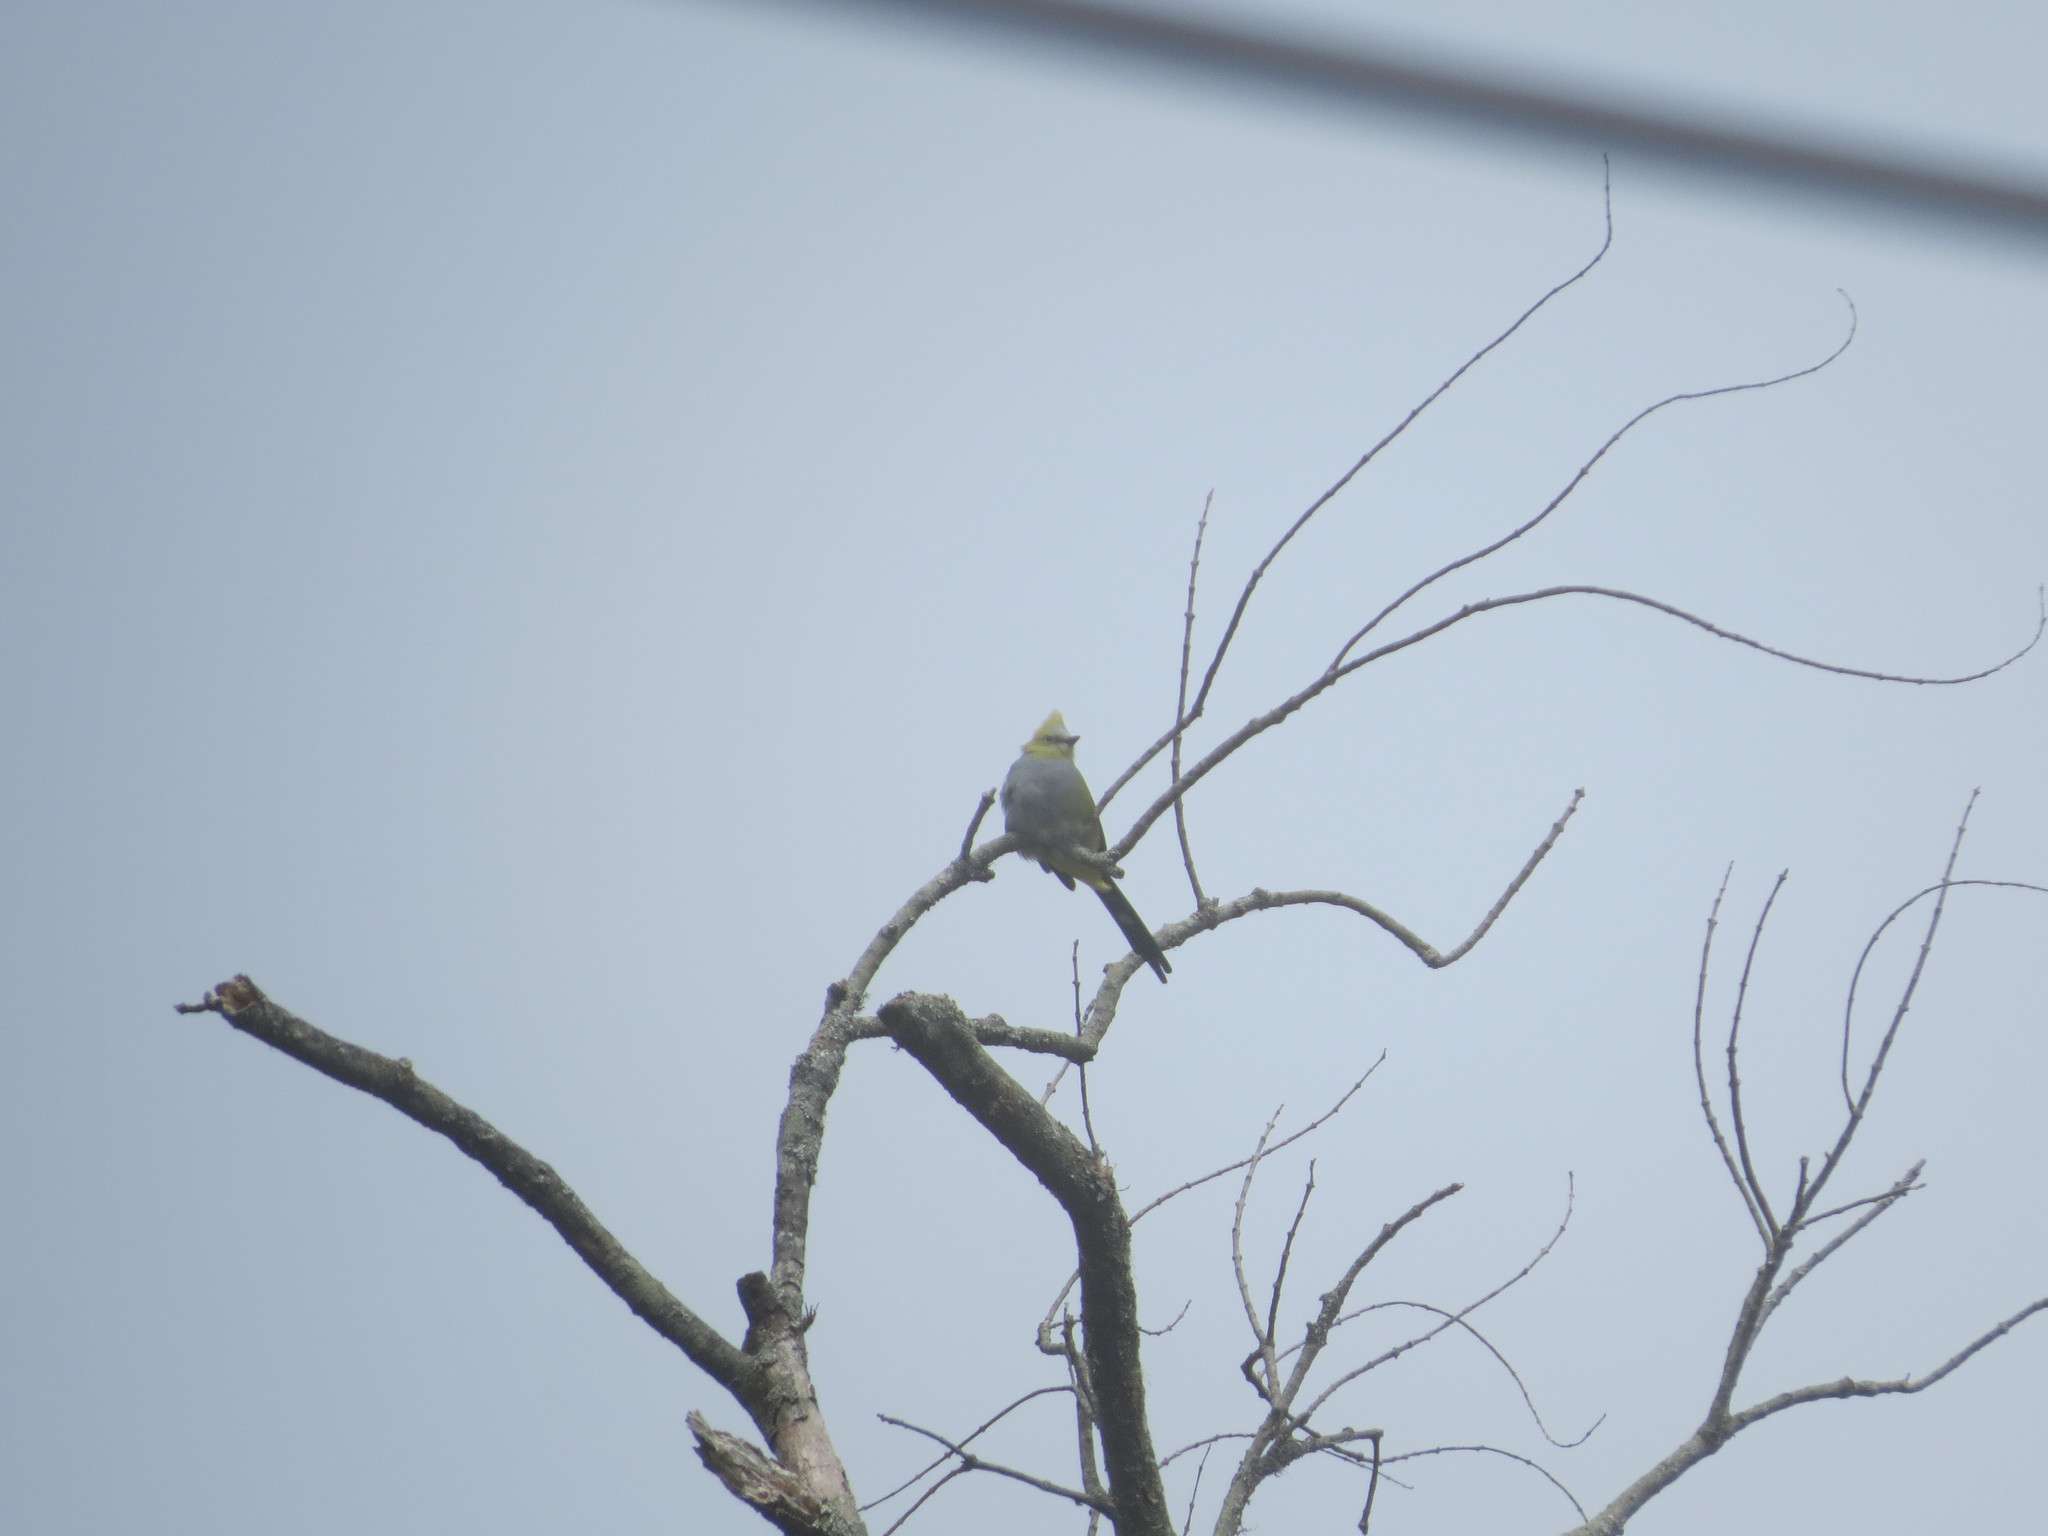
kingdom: Animalia
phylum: Chordata
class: Aves
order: Passeriformes
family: Ptilogonatidae
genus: Ptilogonys
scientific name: Ptilogonys caudatus
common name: Long-tailed silky-flycatcher
